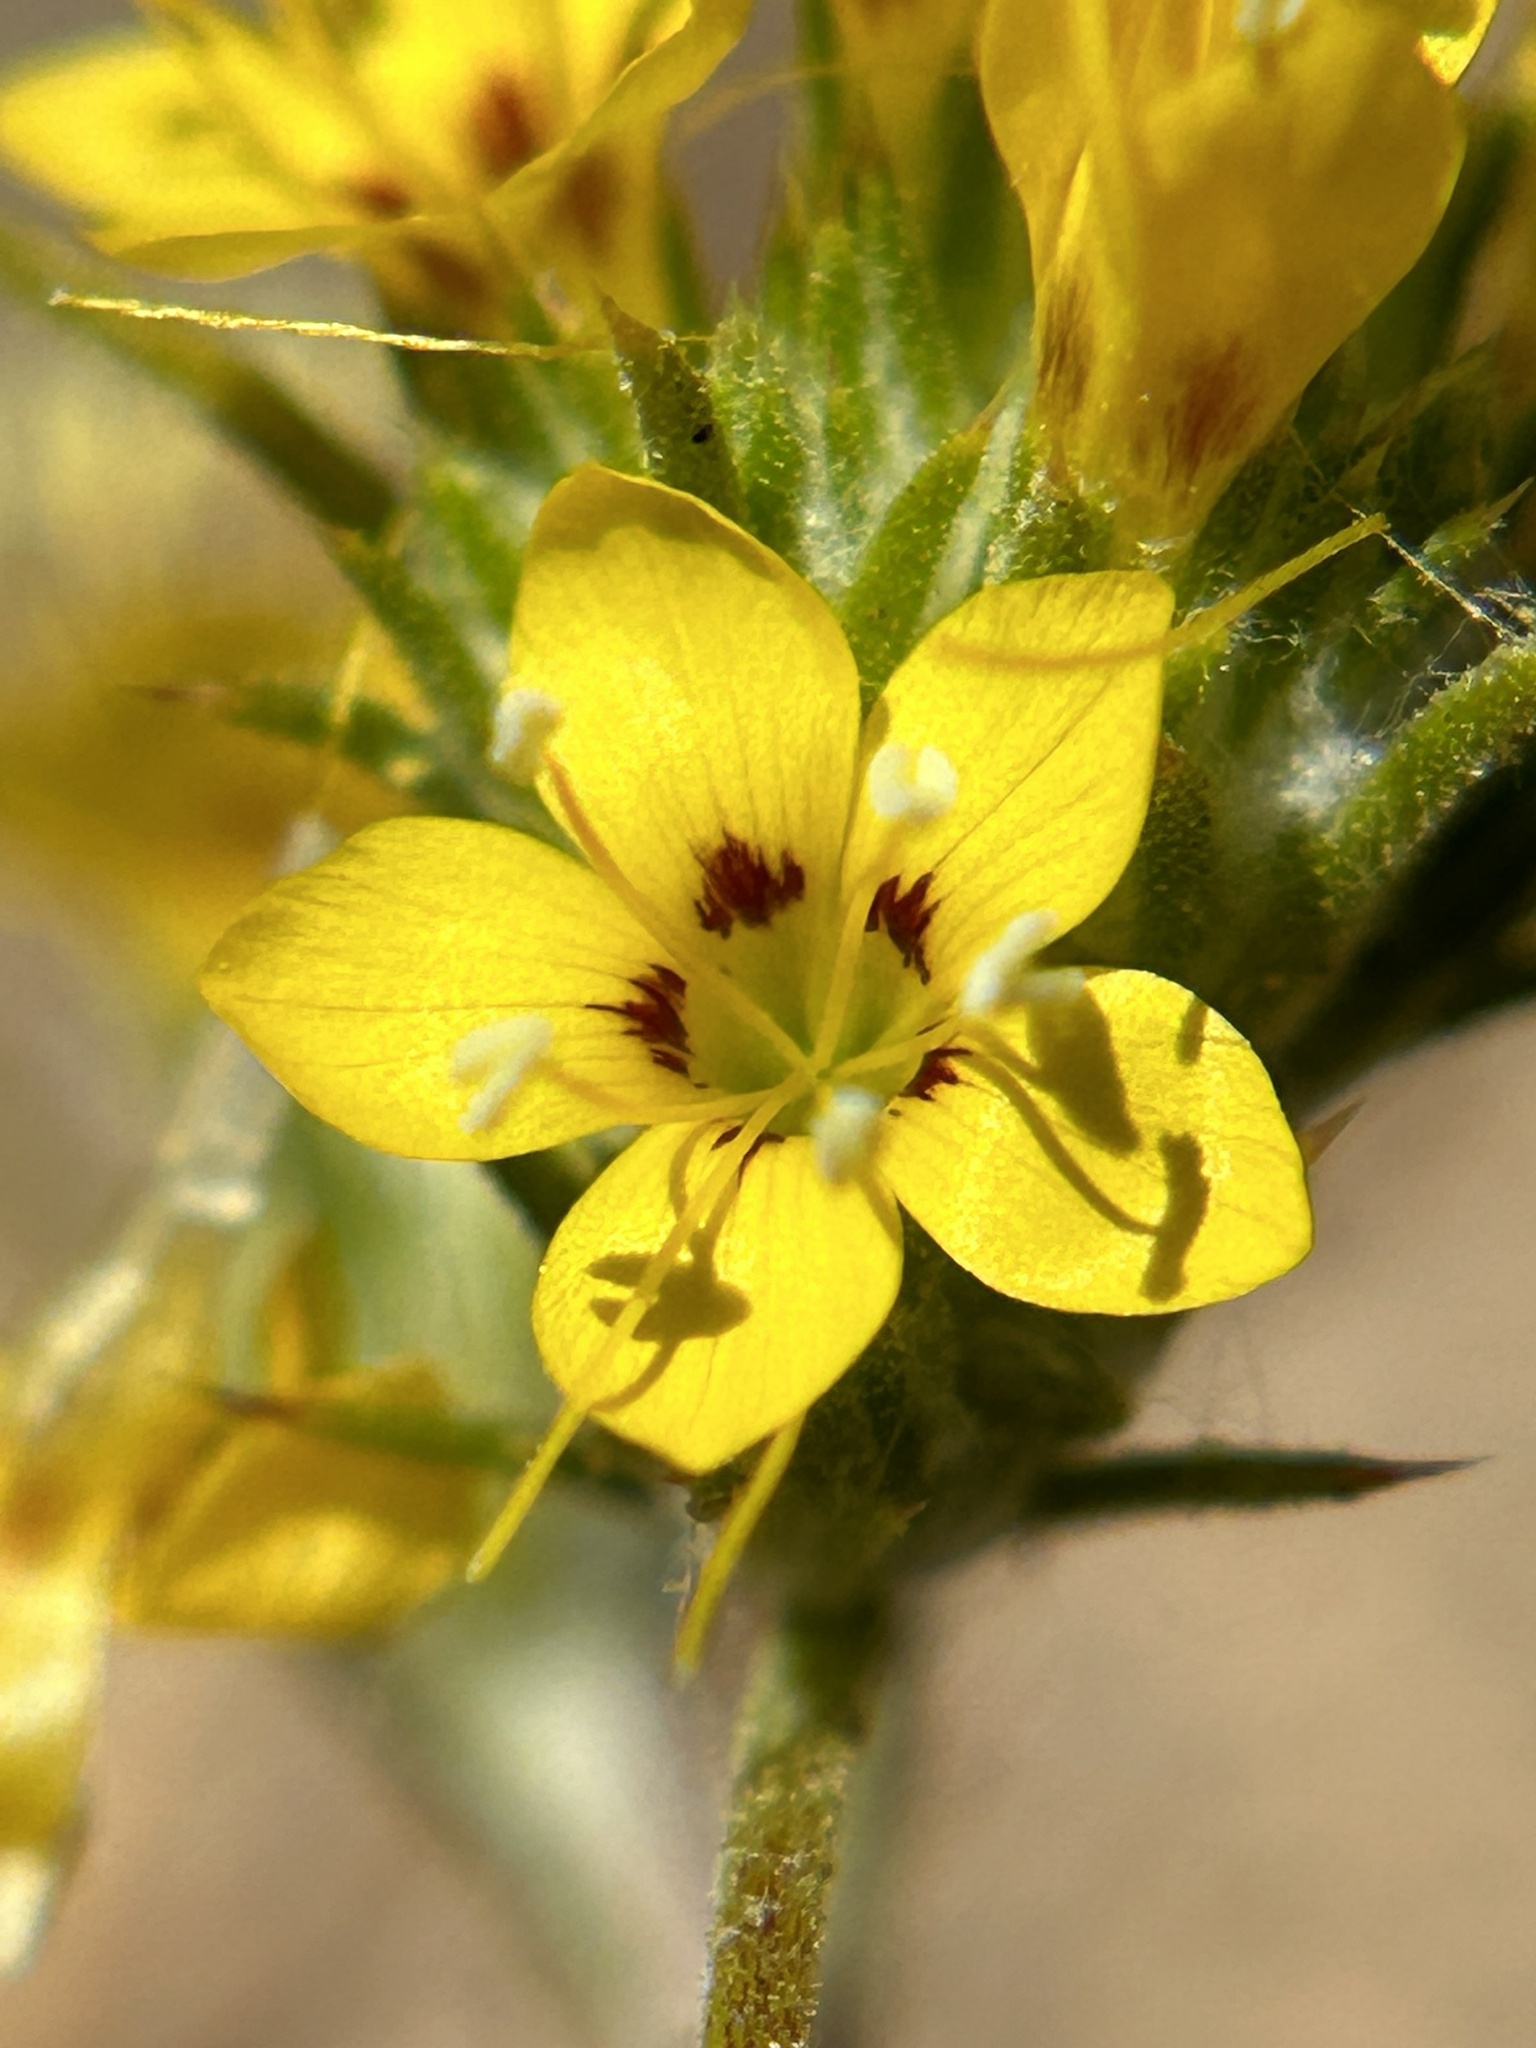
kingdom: Plantae
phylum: Tracheophyta
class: Magnoliopsida
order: Ericales
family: Polemoniaceae
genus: Eriastrum
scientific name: Eriastrum luteum
